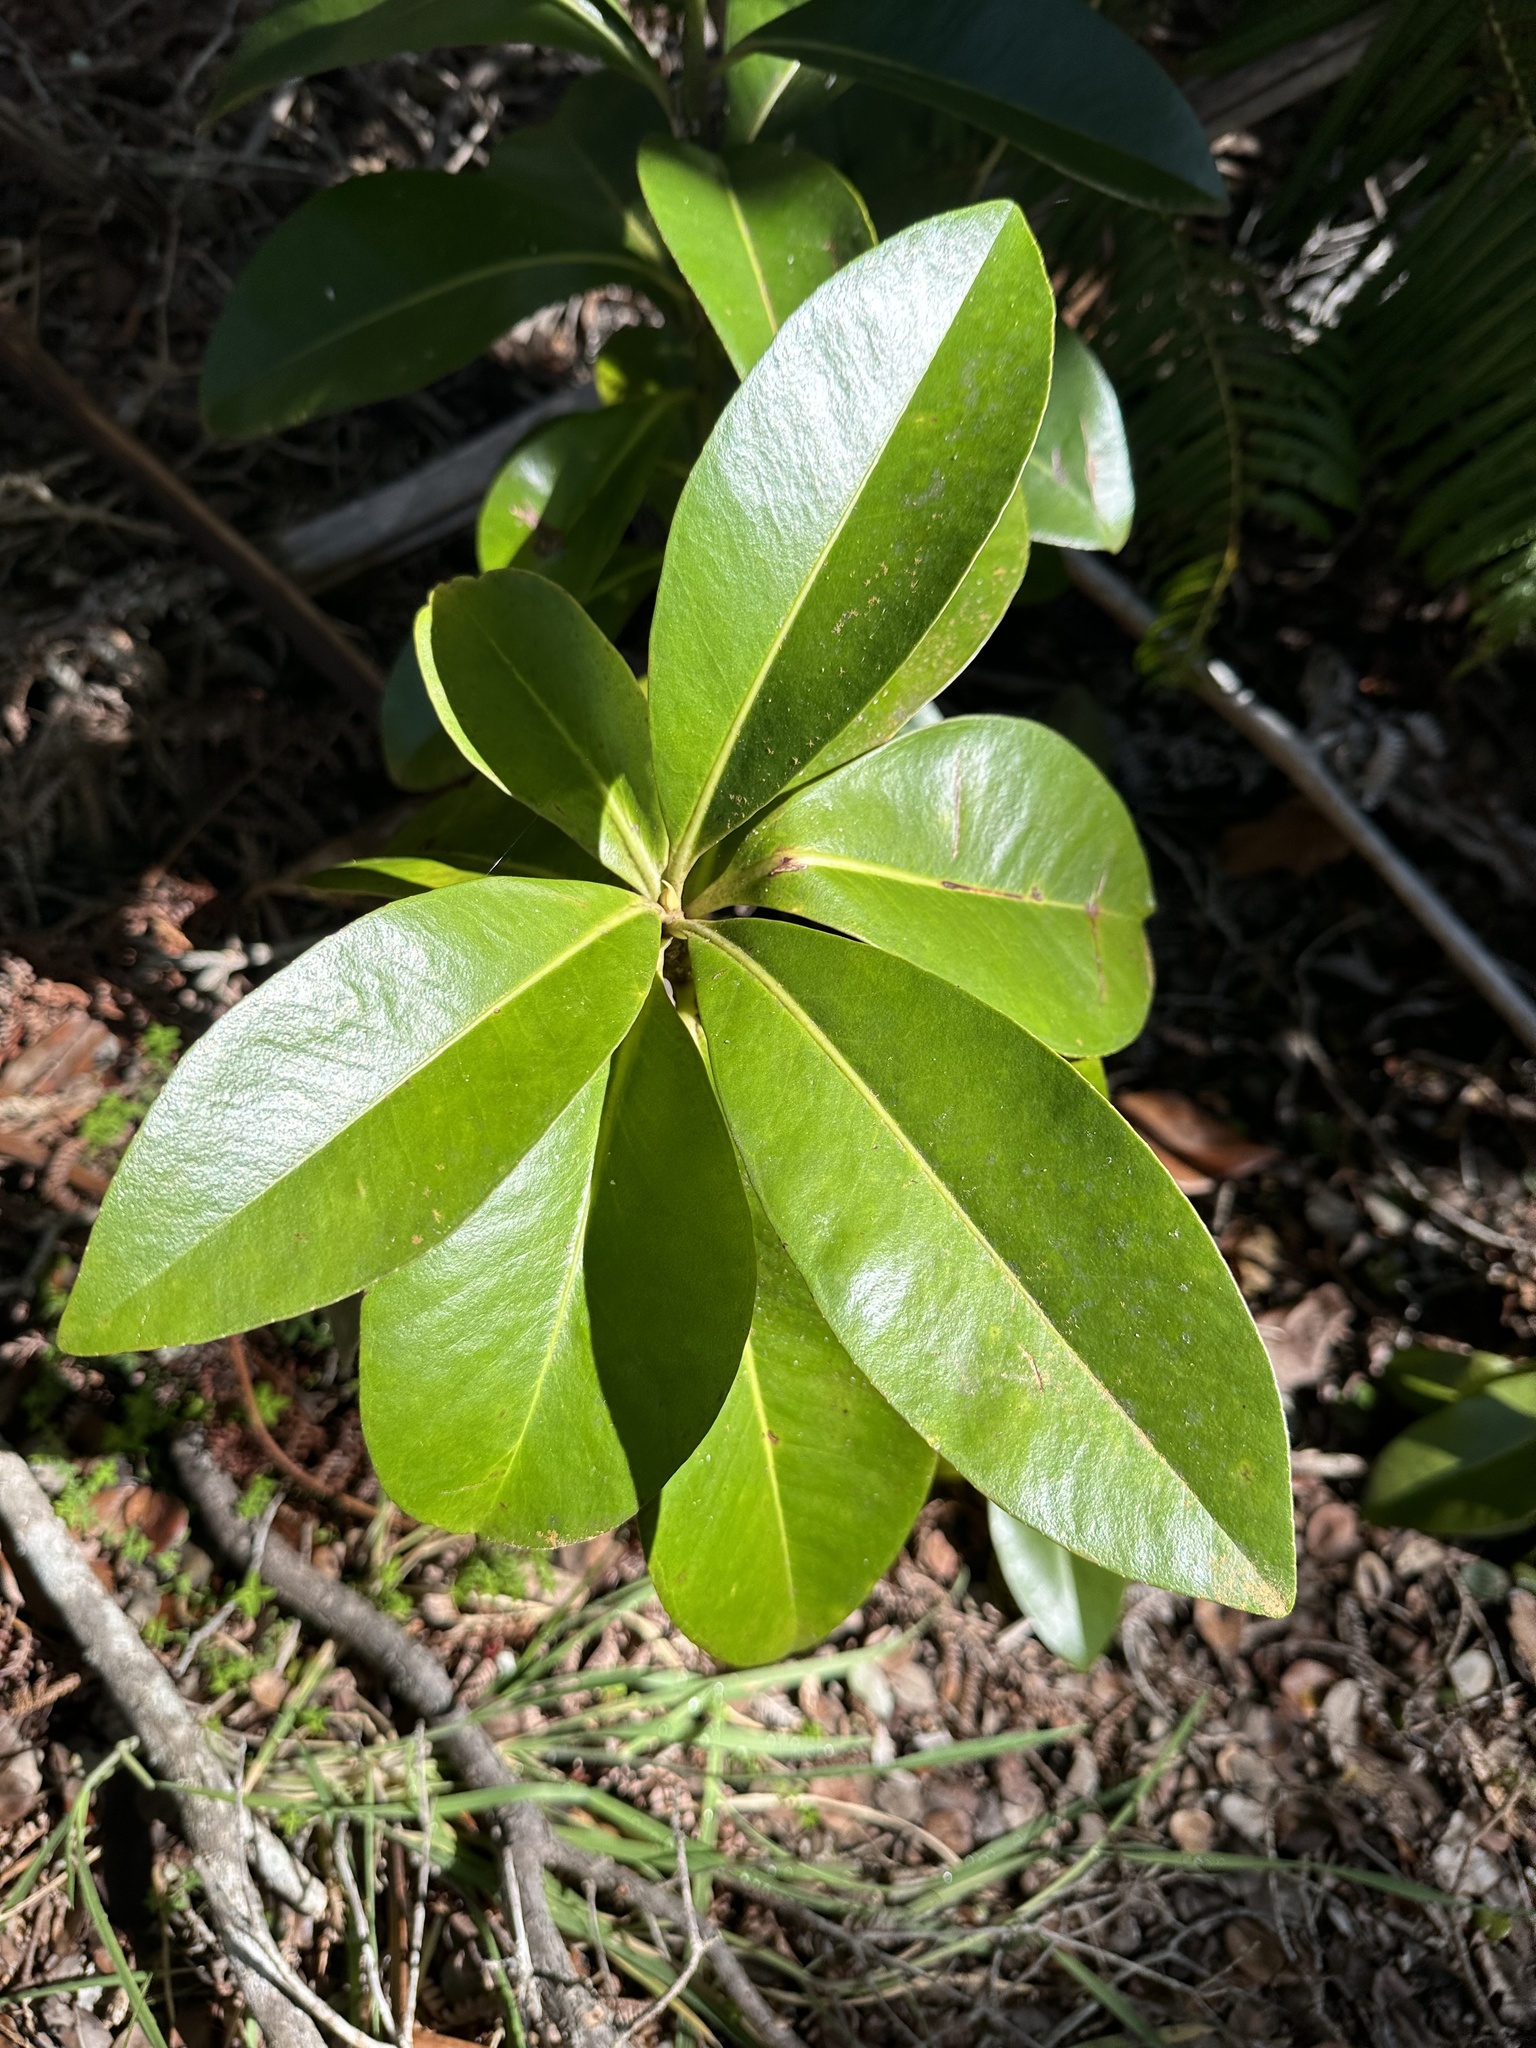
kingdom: Plantae
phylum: Tracheophyta
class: Magnoliopsida
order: Ericales
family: Primulaceae
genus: Myrsine
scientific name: Myrsine lessertiana
